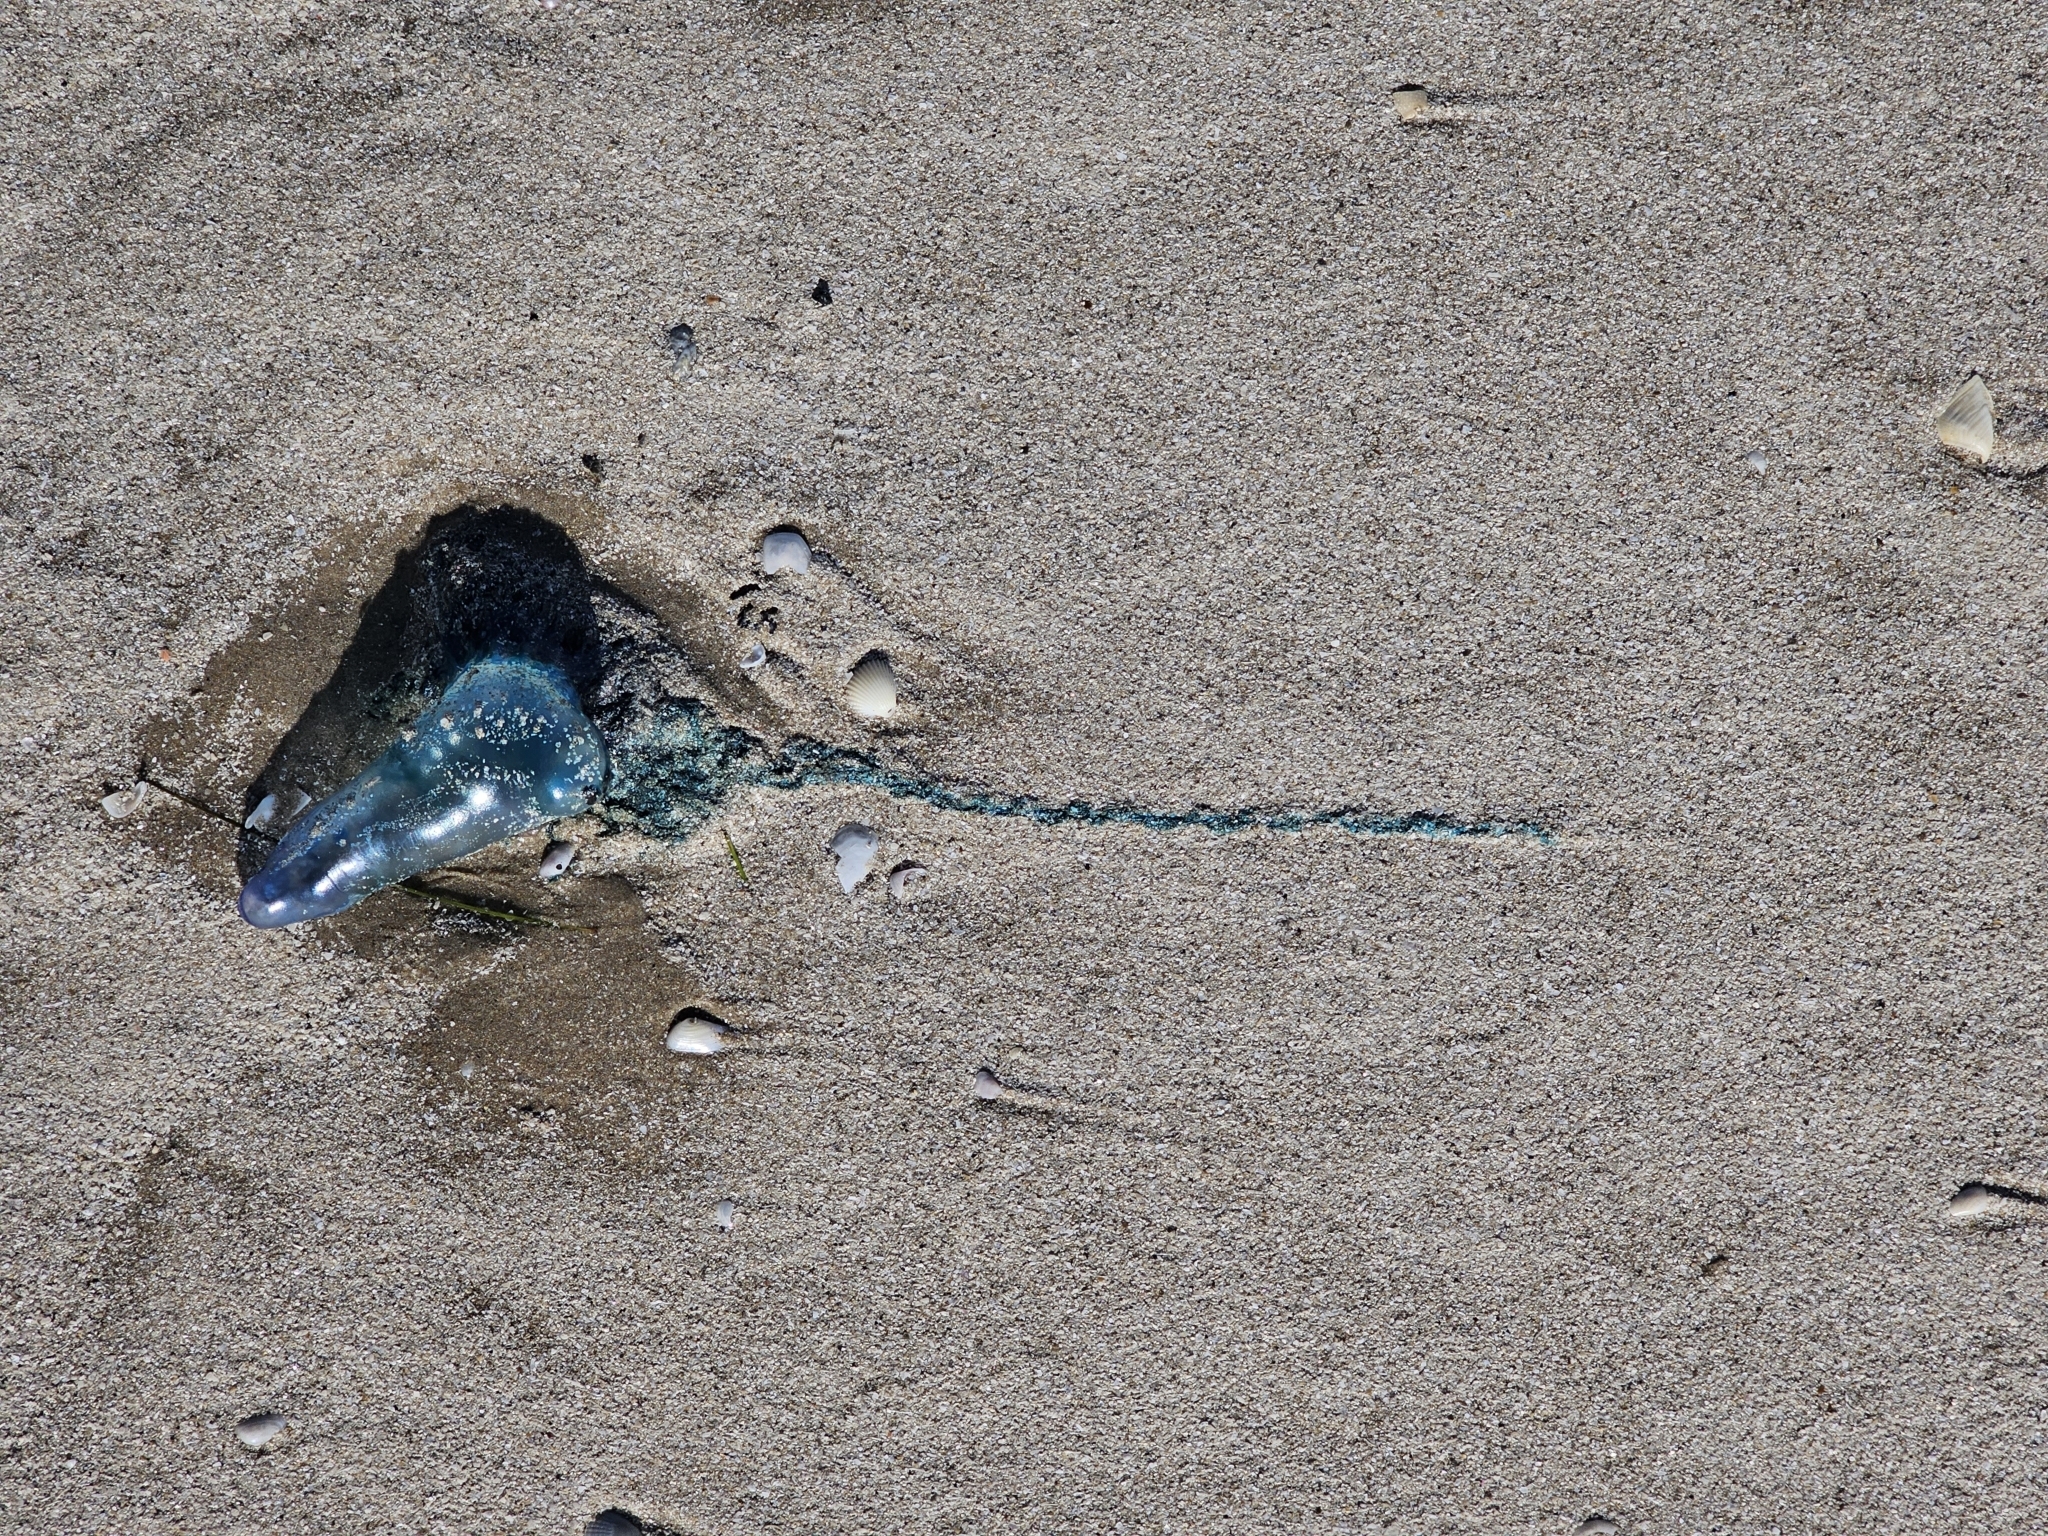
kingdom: Animalia
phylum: Cnidaria
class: Hydrozoa
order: Siphonophorae
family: Physaliidae
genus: Physalia
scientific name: Physalia physalis
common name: Portuguese man-of-war
